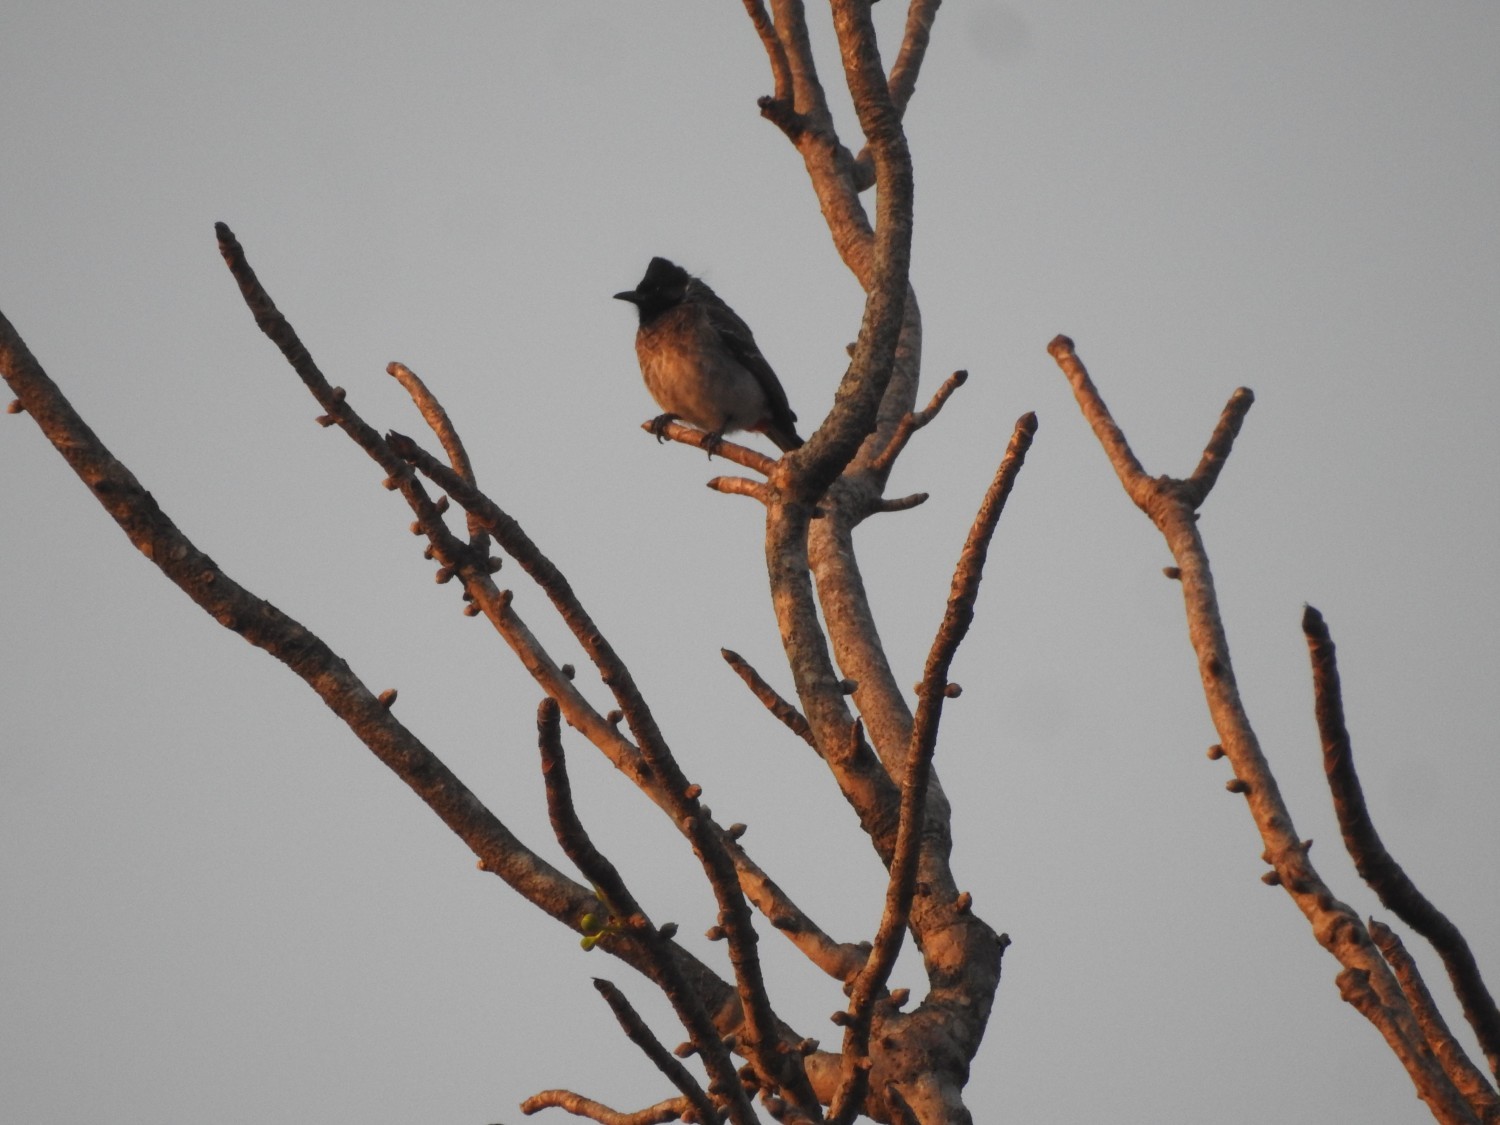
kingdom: Animalia
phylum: Chordata
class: Aves
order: Passeriformes
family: Pycnonotidae
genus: Pycnonotus
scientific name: Pycnonotus cafer
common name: Red-vented bulbul
